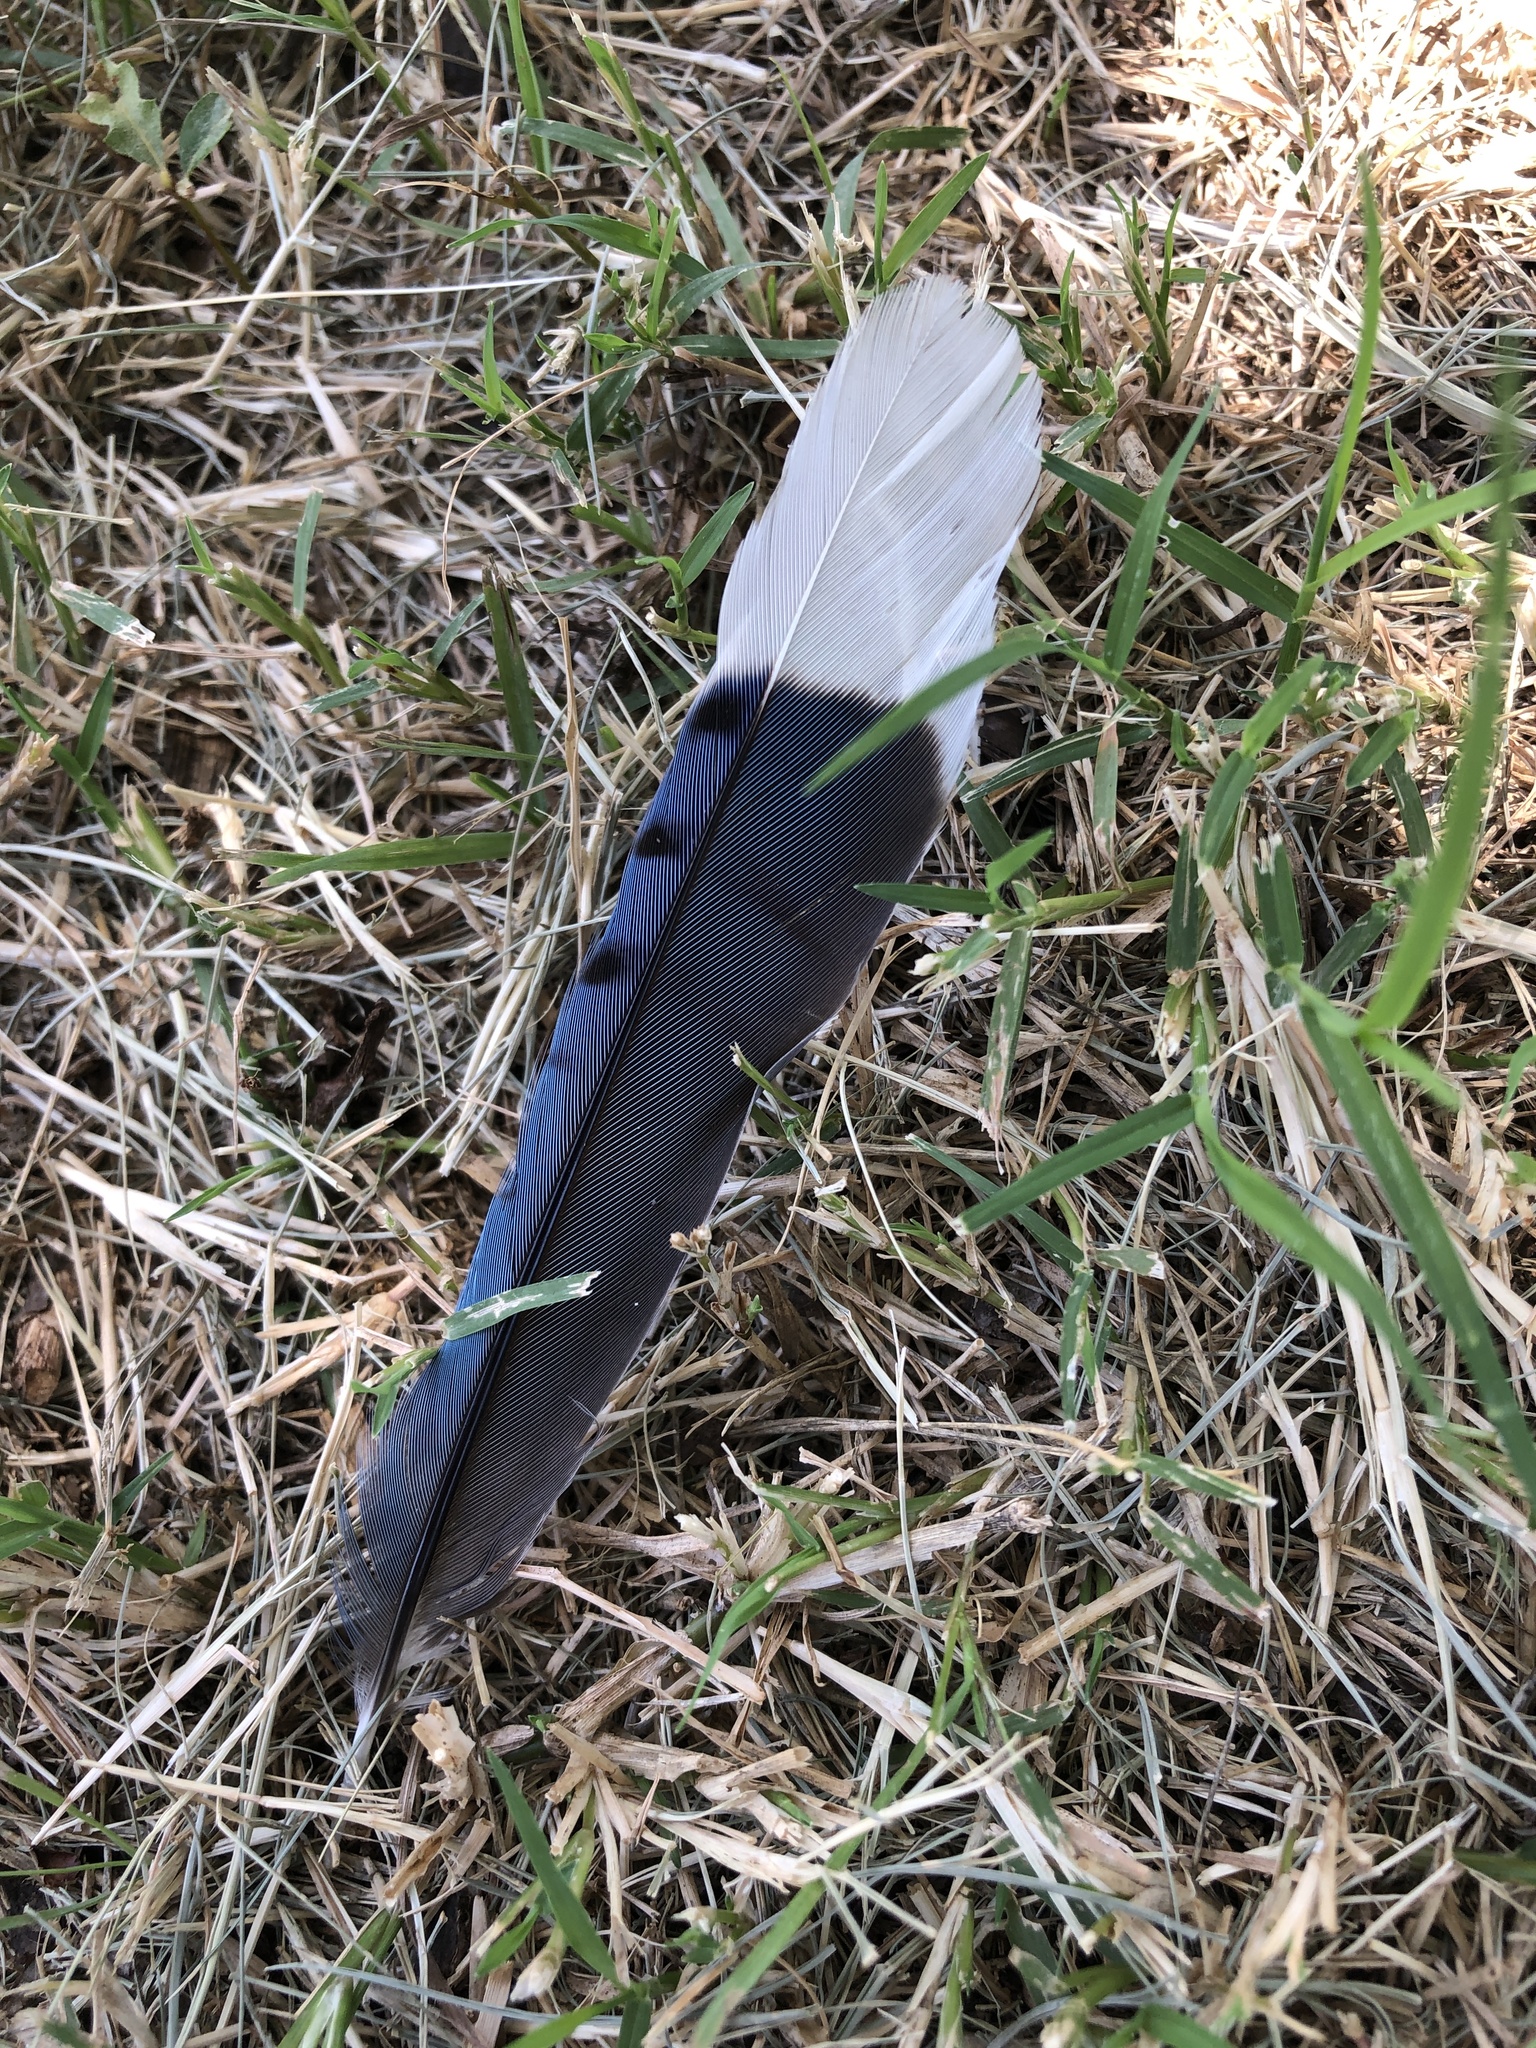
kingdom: Animalia
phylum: Chordata
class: Aves
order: Passeriformes
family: Corvidae
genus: Cyanocitta
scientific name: Cyanocitta cristata
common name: Blue jay
